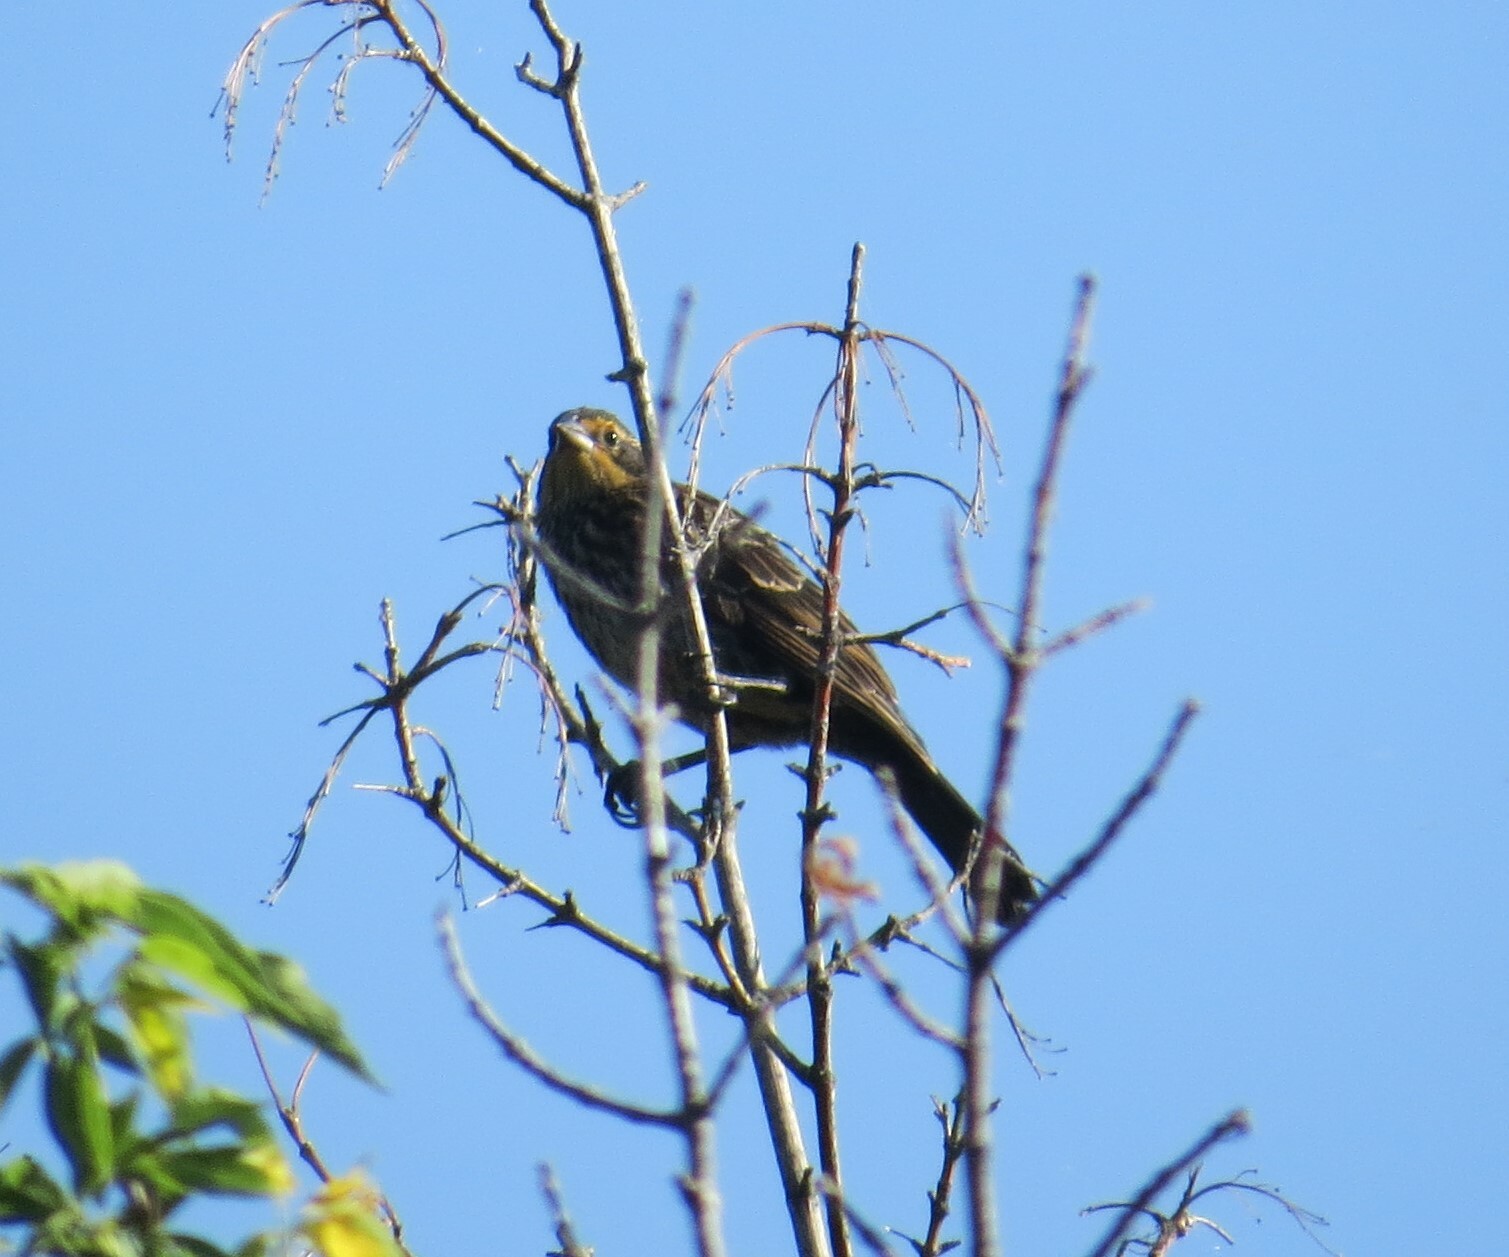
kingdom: Animalia
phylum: Chordata
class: Aves
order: Passeriformes
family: Icteridae
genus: Agelaius
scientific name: Agelaius phoeniceus
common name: Red-winged blackbird
